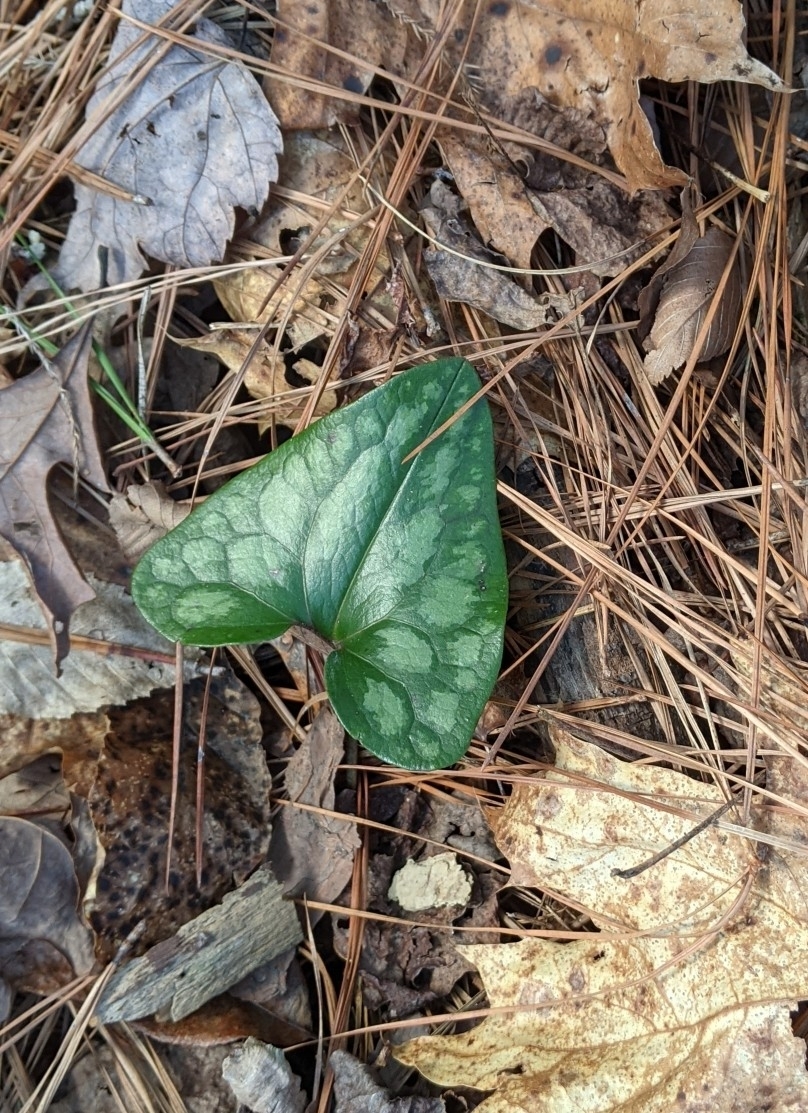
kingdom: Plantae
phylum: Tracheophyta
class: Magnoliopsida
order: Piperales
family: Aristolochiaceae
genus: Hexastylis
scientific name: Hexastylis arifolia
